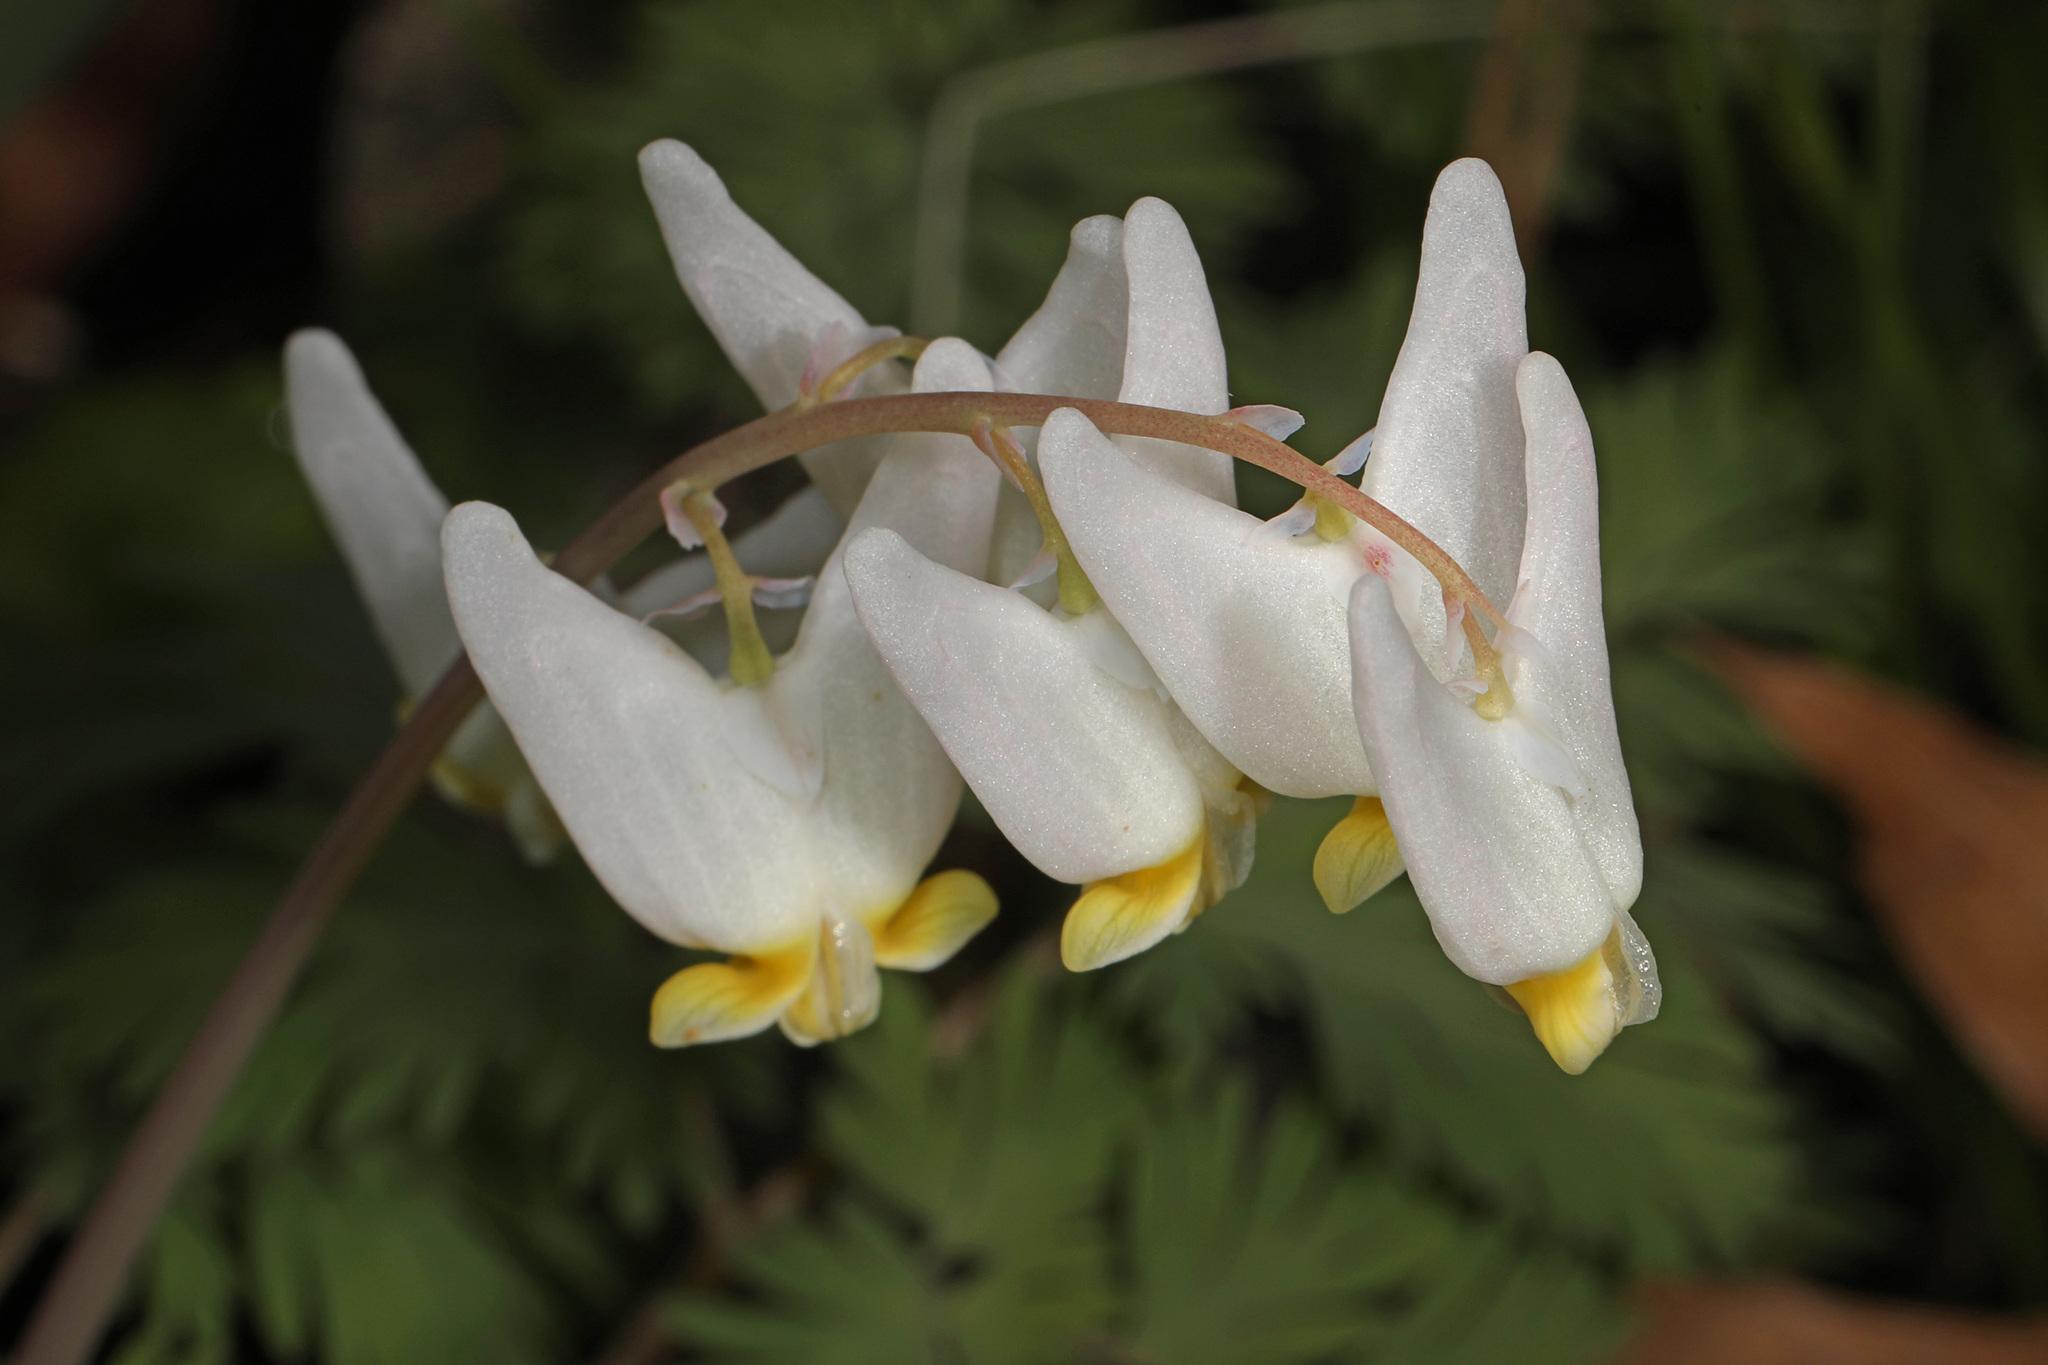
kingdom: Plantae
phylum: Tracheophyta
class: Magnoliopsida
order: Ranunculales
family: Papaveraceae
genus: Dicentra
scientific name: Dicentra cucullaria
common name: Dutchman's breeches
